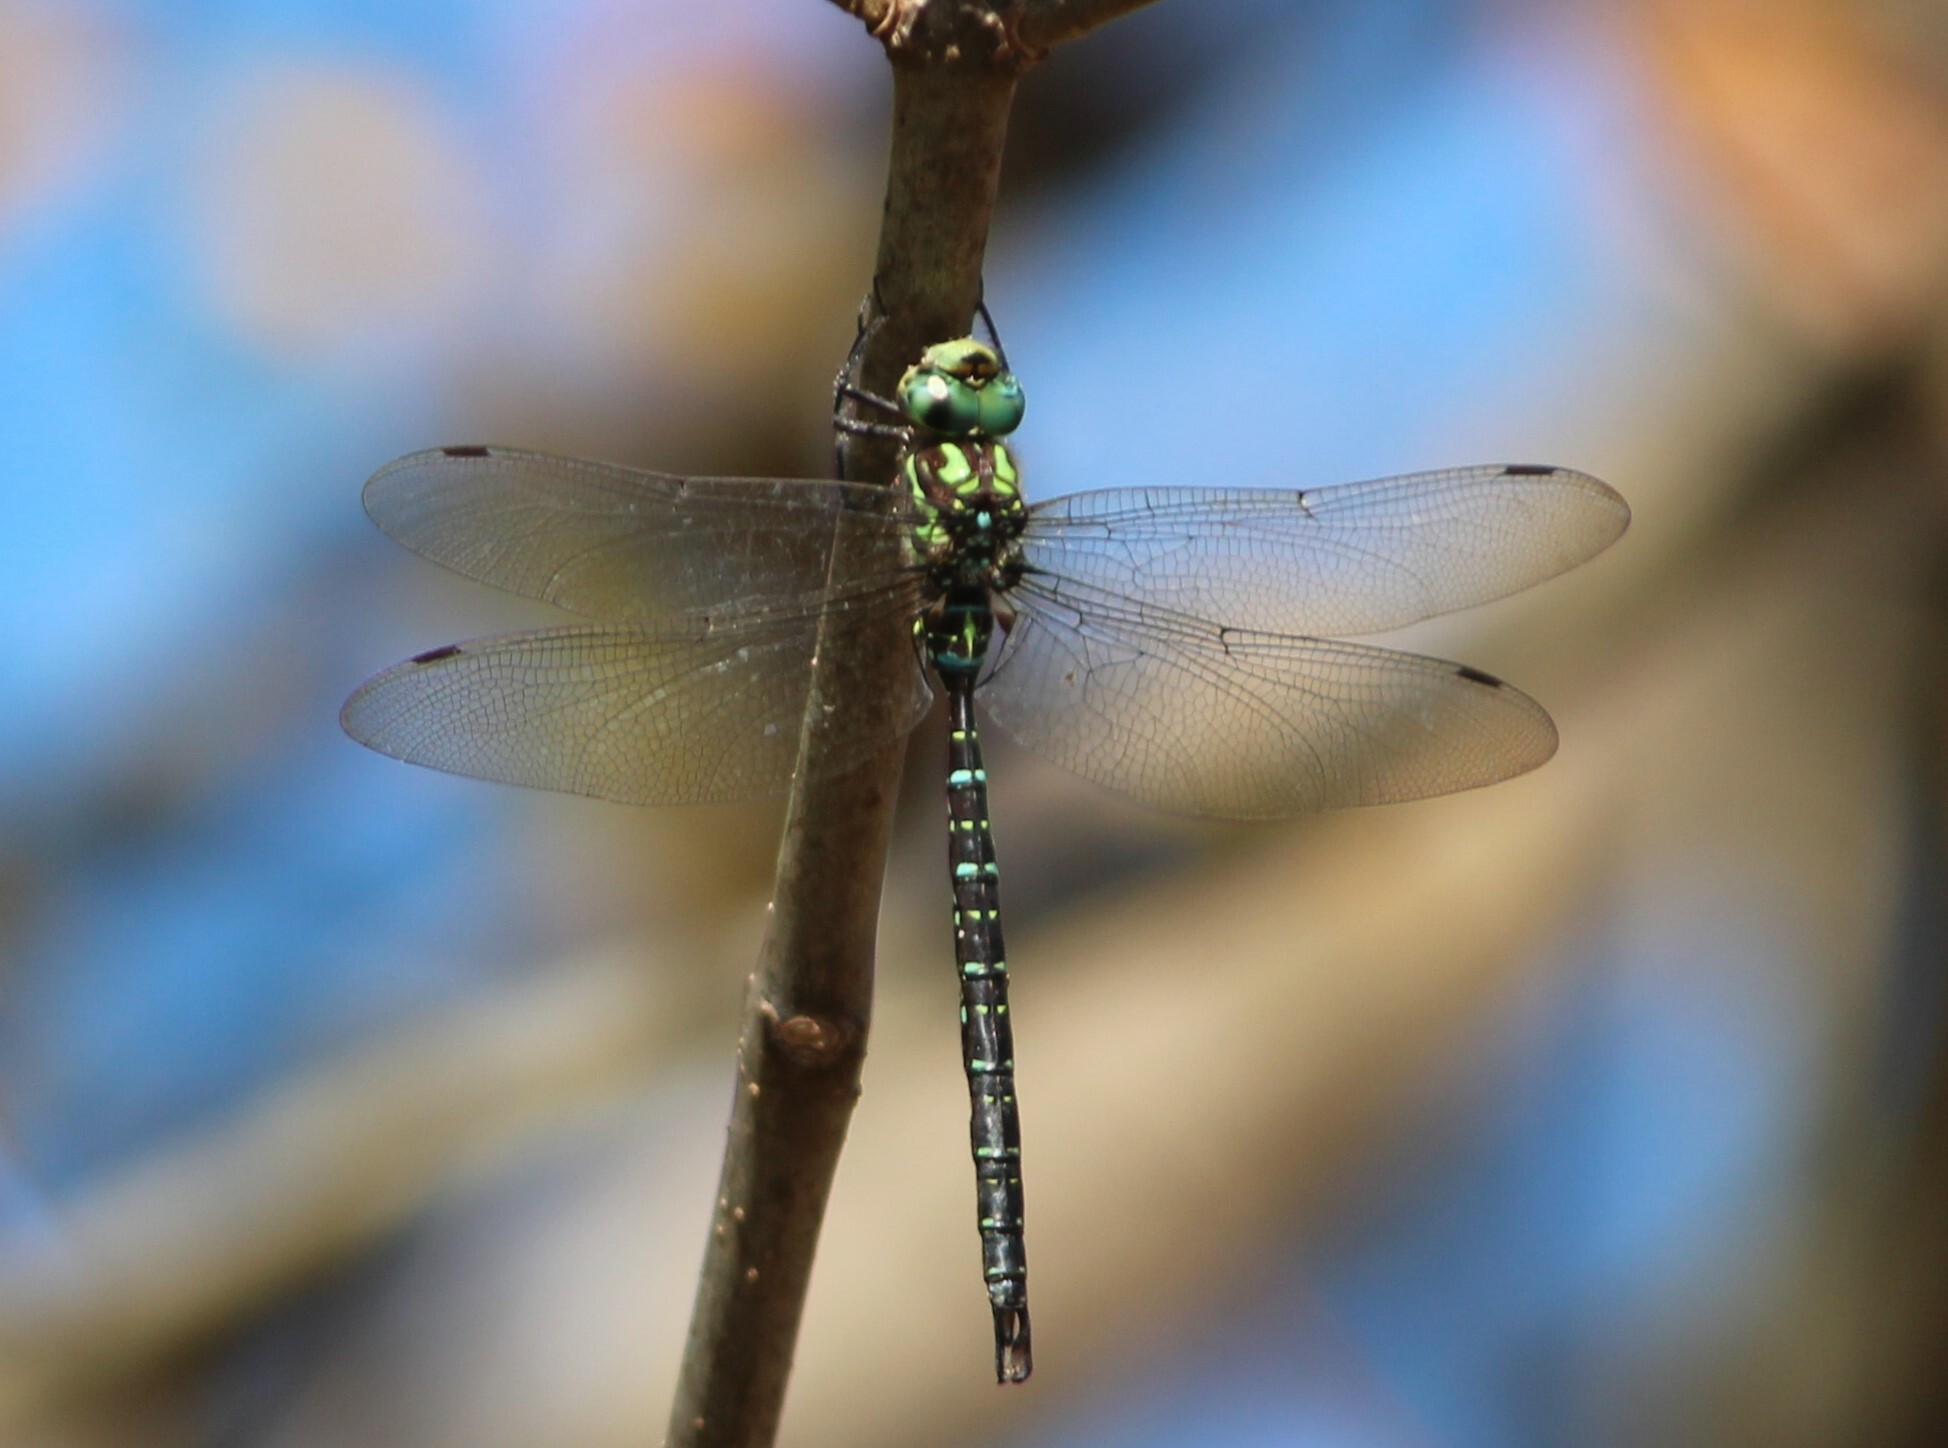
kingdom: Animalia
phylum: Arthropoda
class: Insecta
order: Odonata
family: Aeshnidae
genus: Aeshna
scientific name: Aeshna umbrosa
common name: Shadow darner
